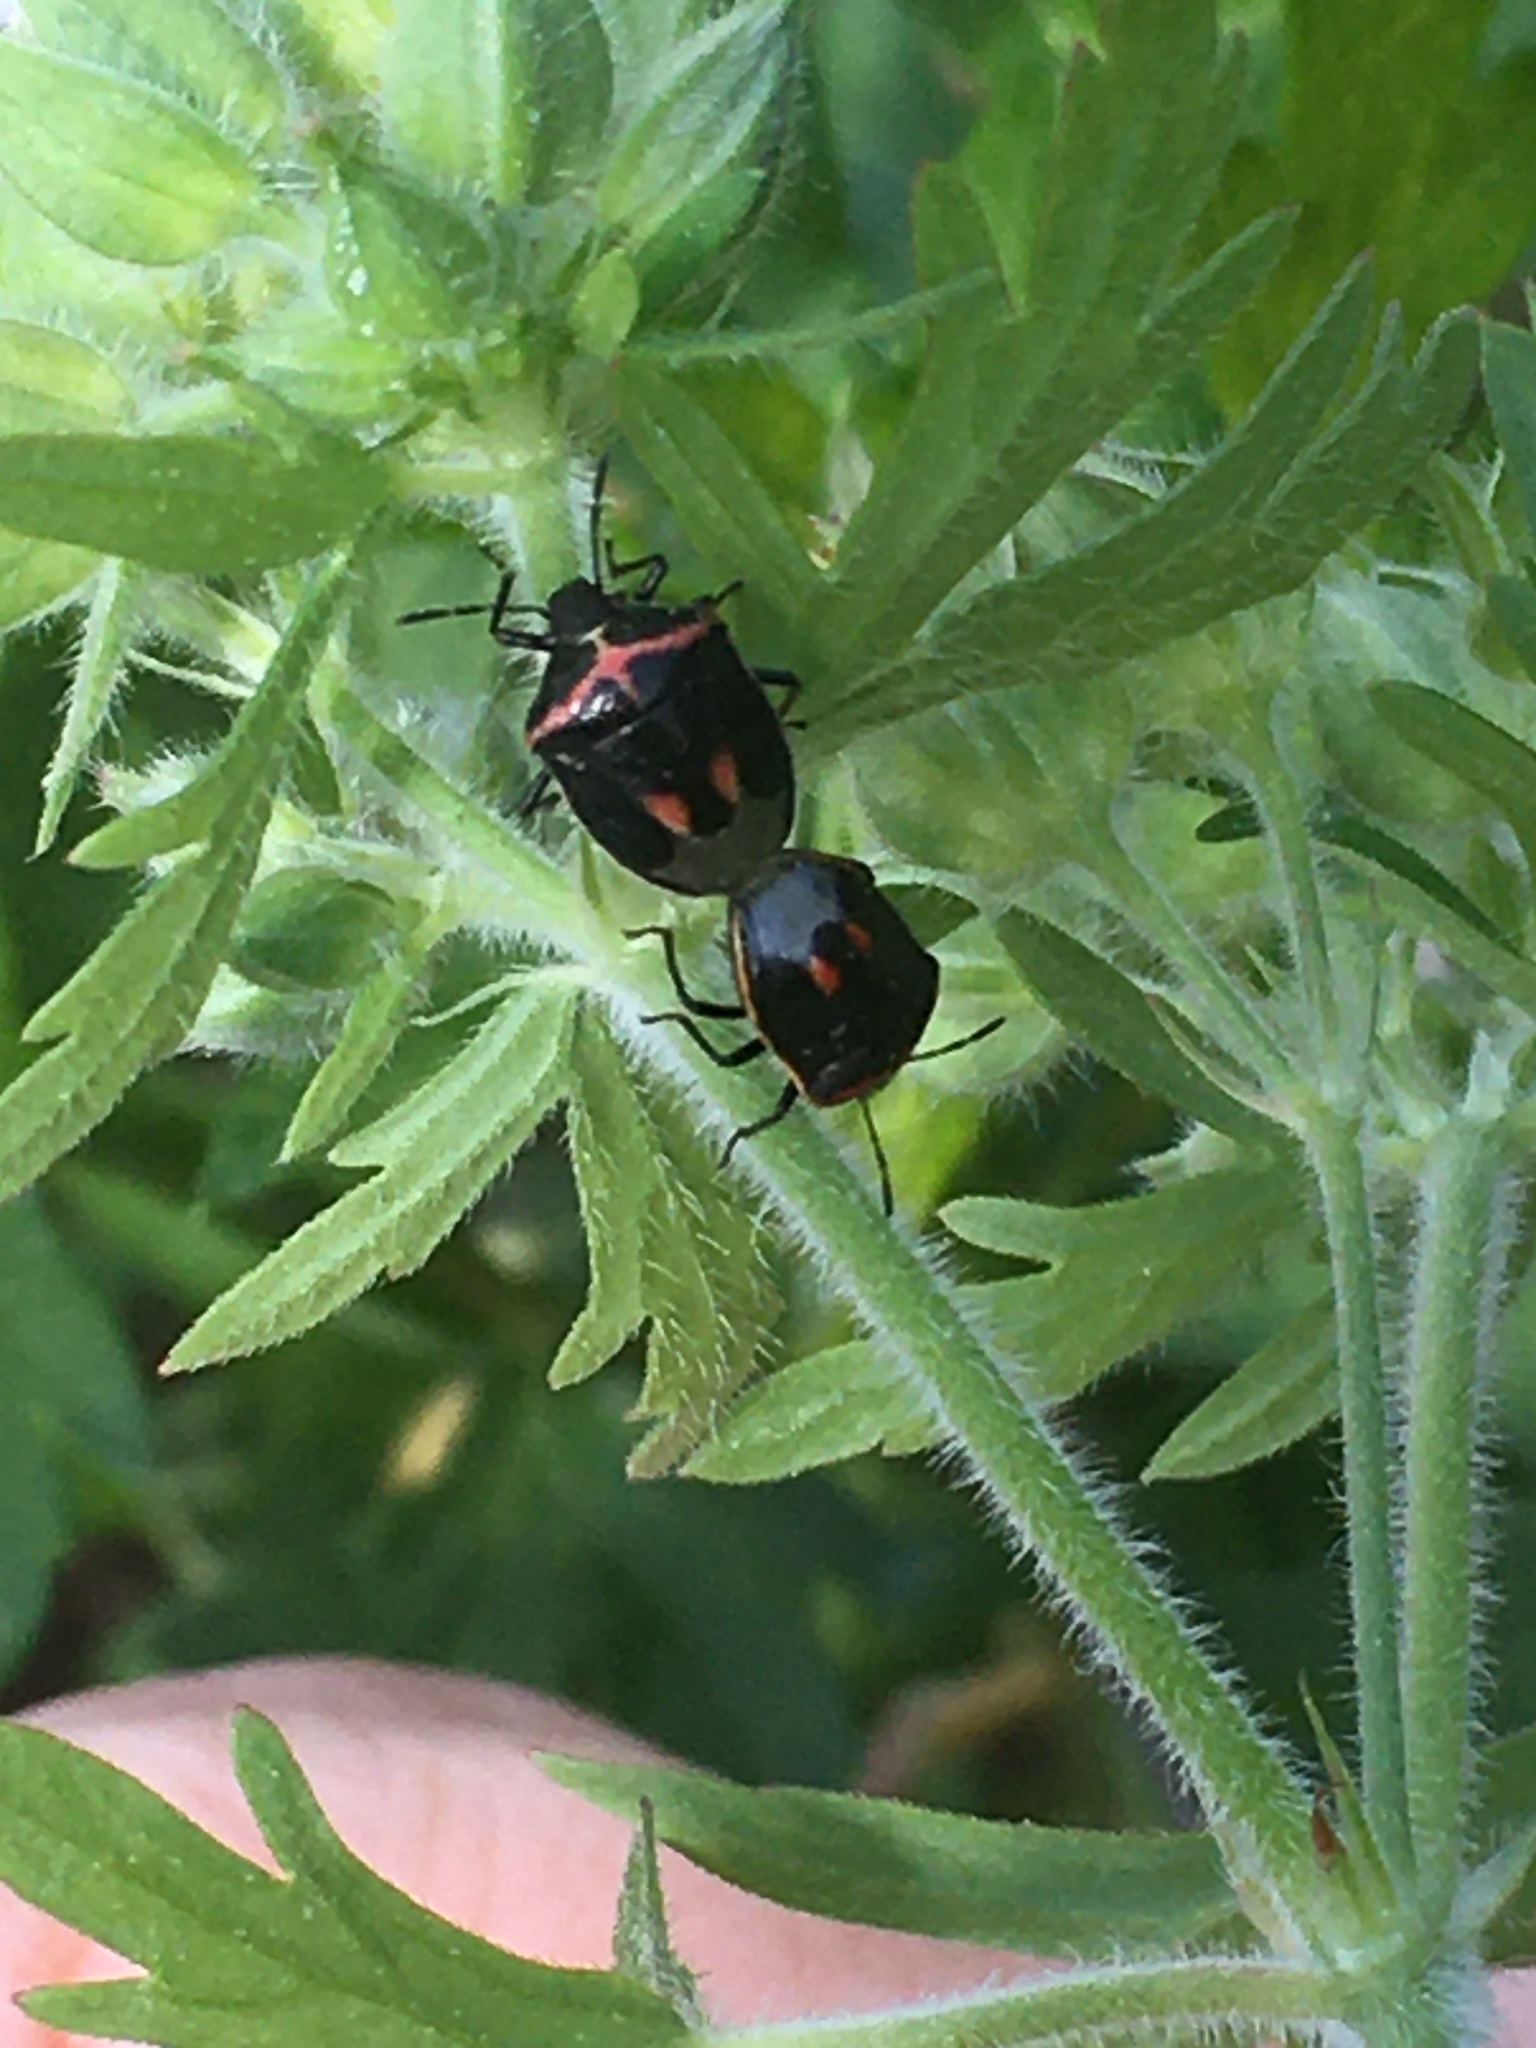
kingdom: Animalia
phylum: Arthropoda
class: Insecta
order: Hemiptera
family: Pentatomidae
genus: Cosmopepla
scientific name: Cosmopepla lintneriana
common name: Twice-stabbed stink bug
